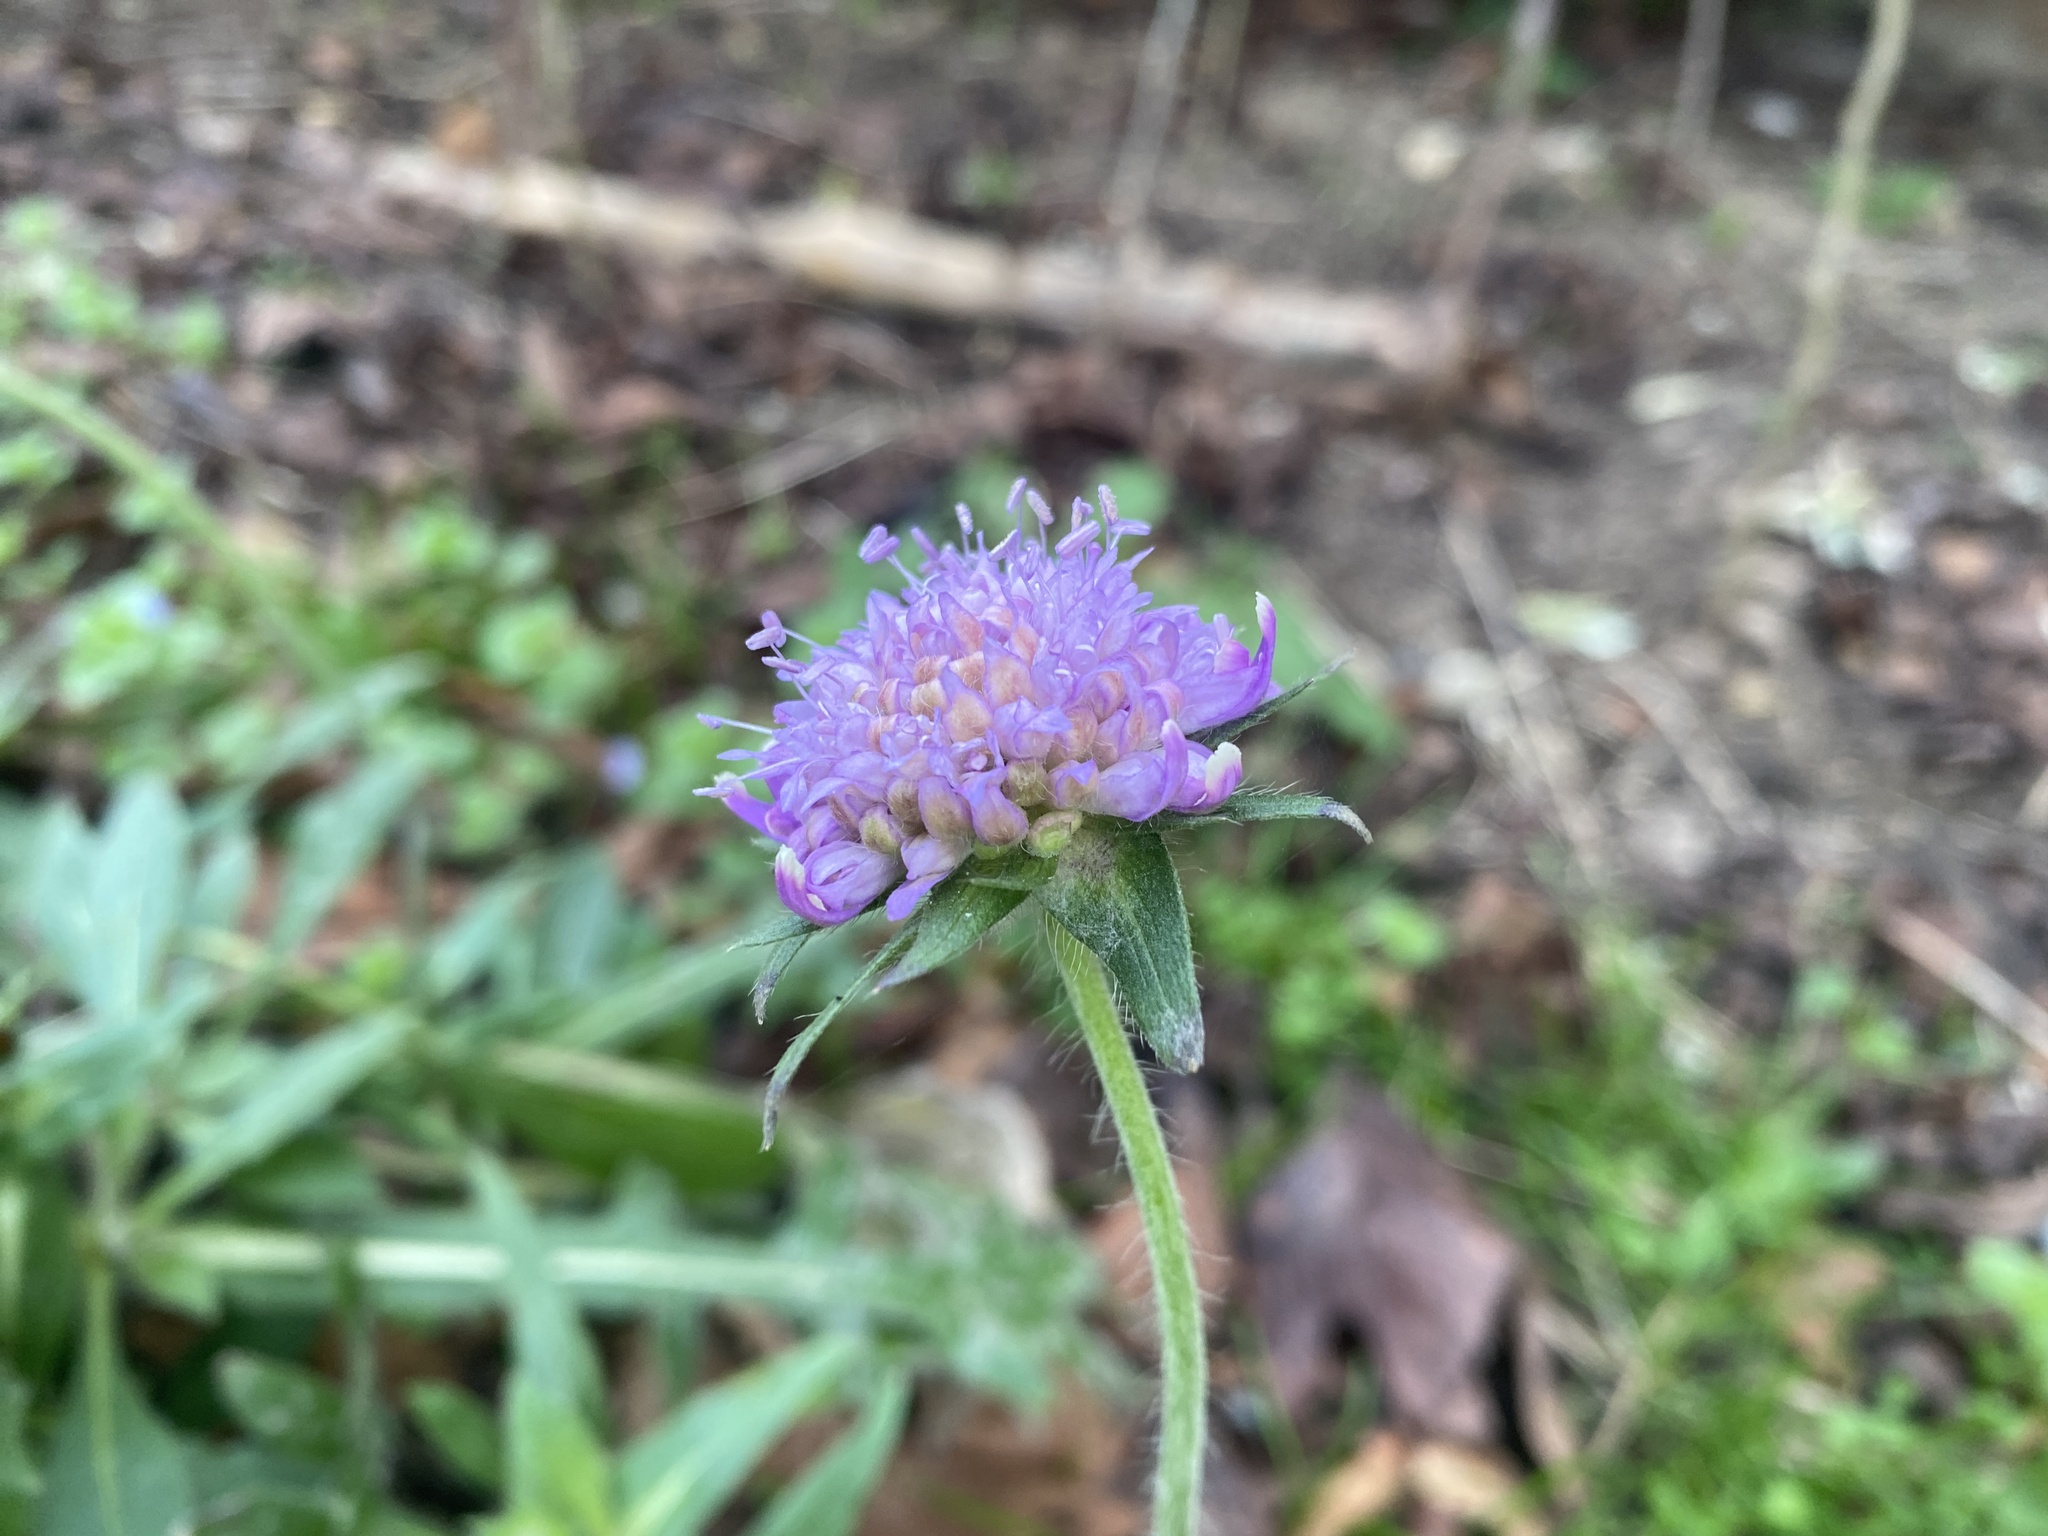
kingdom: Plantae
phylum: Tracheophyta
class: Magnoliopsida
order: Dipsacales
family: Caprifoliaceae
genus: Knautia
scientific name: Knautia arvensis
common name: Field scabiosa
